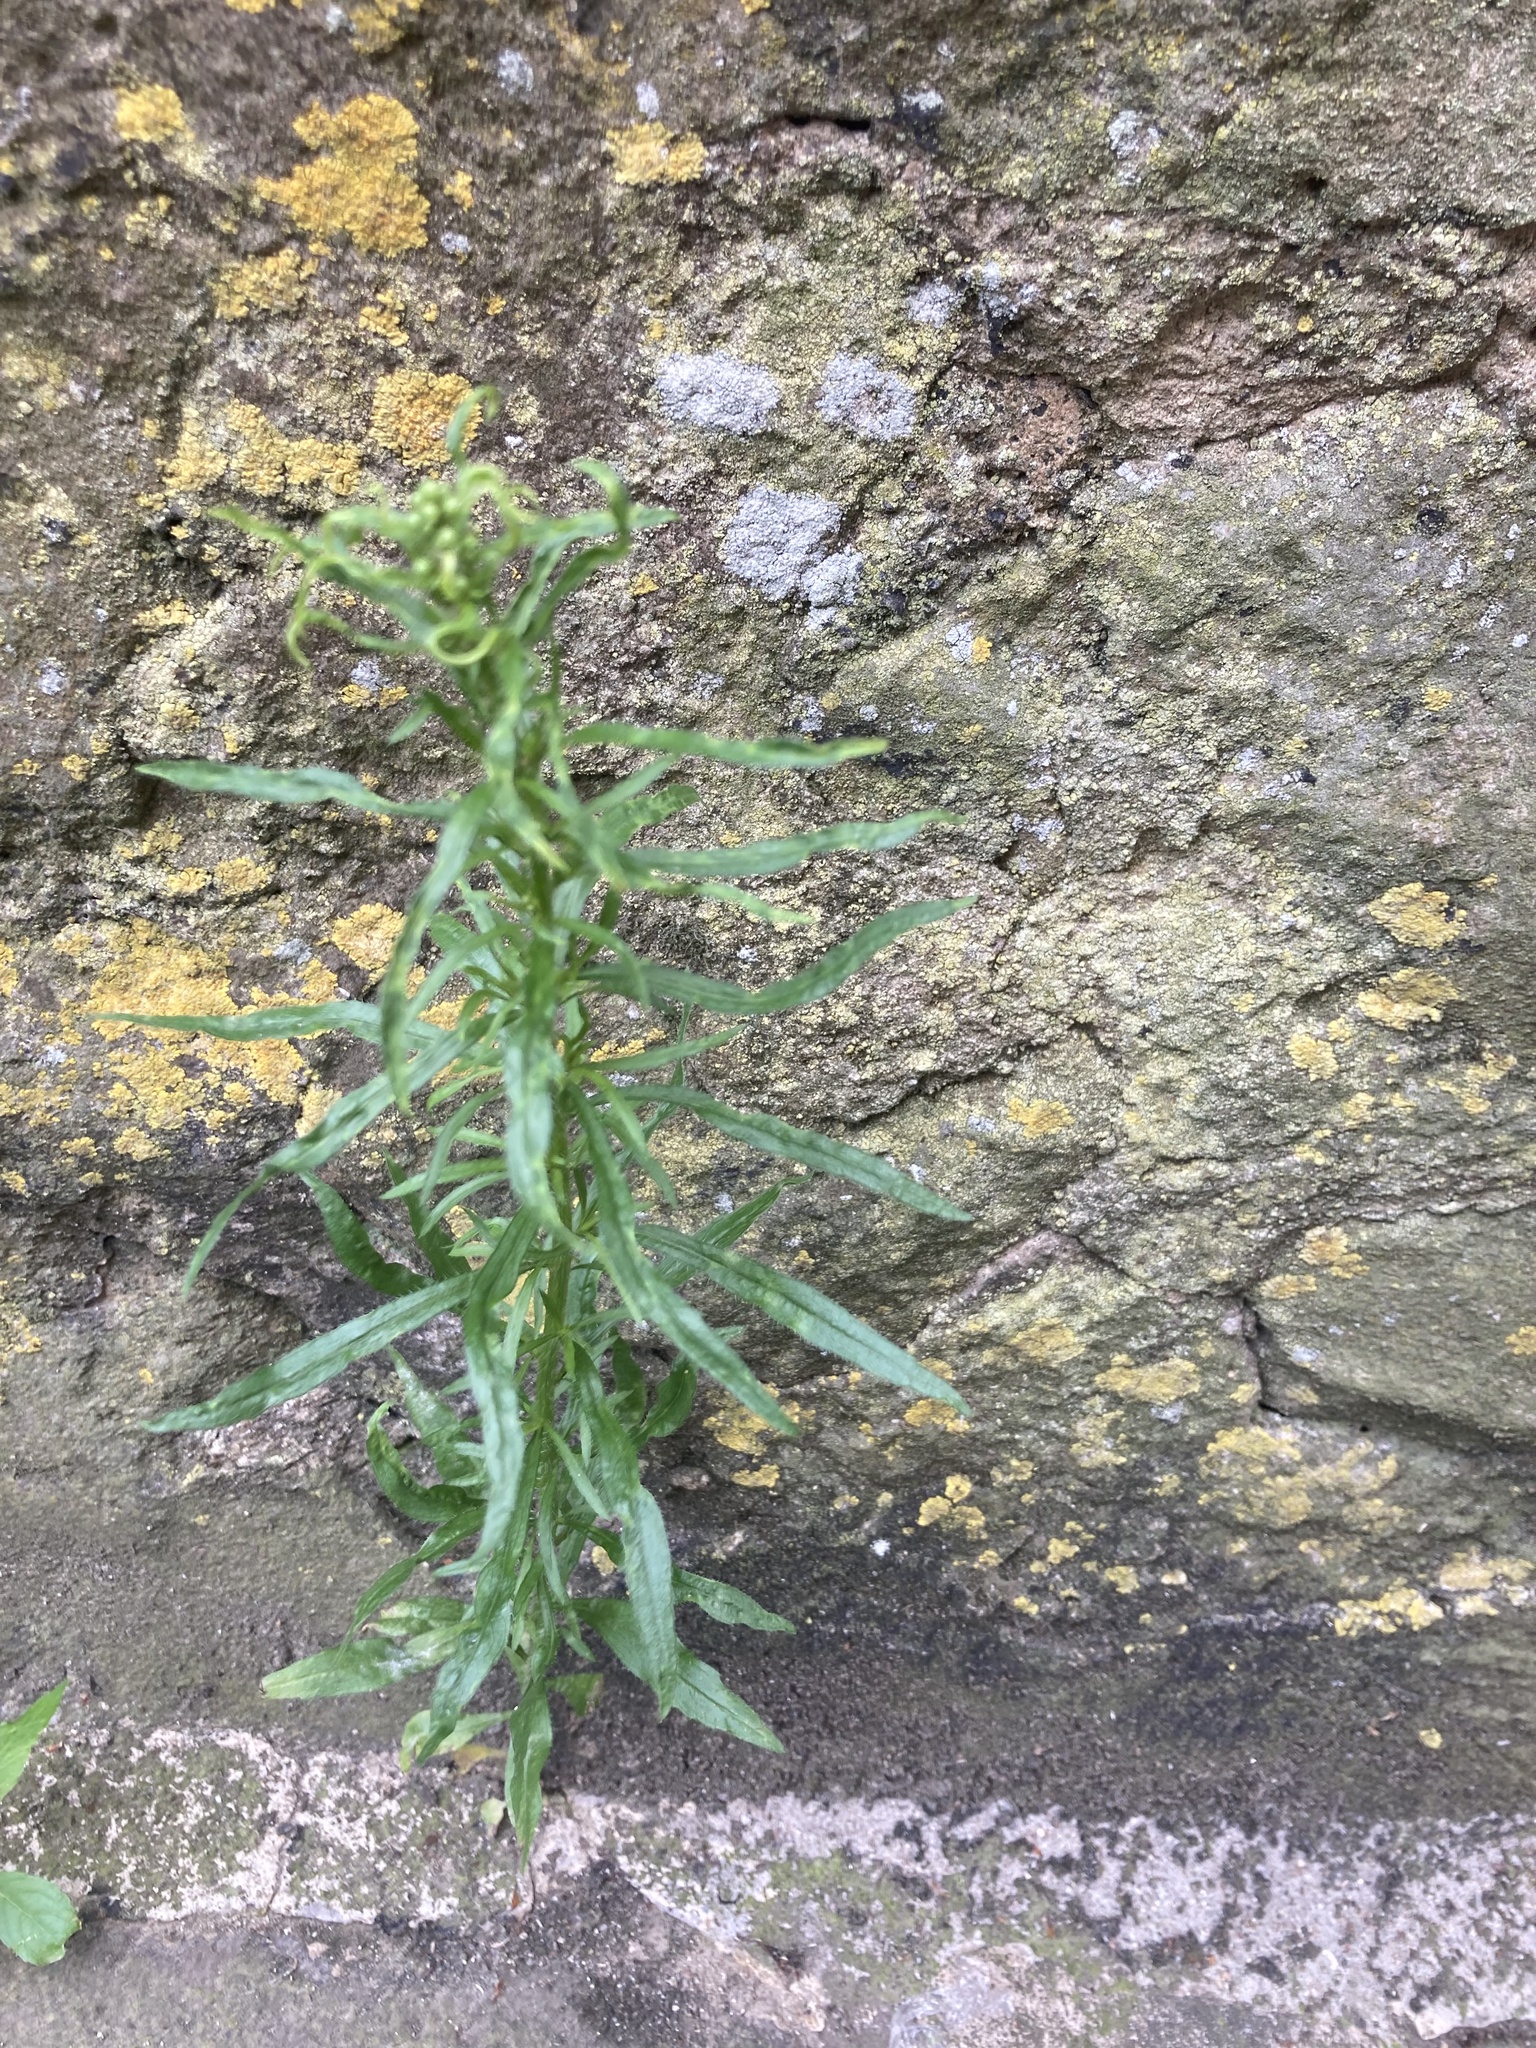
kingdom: Plantae
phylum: Tracheophyta
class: Magnoliopsida
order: Asterales
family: Asteraceae
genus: Erigeron
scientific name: Erigeron canadensis
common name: Canadian fleabane
